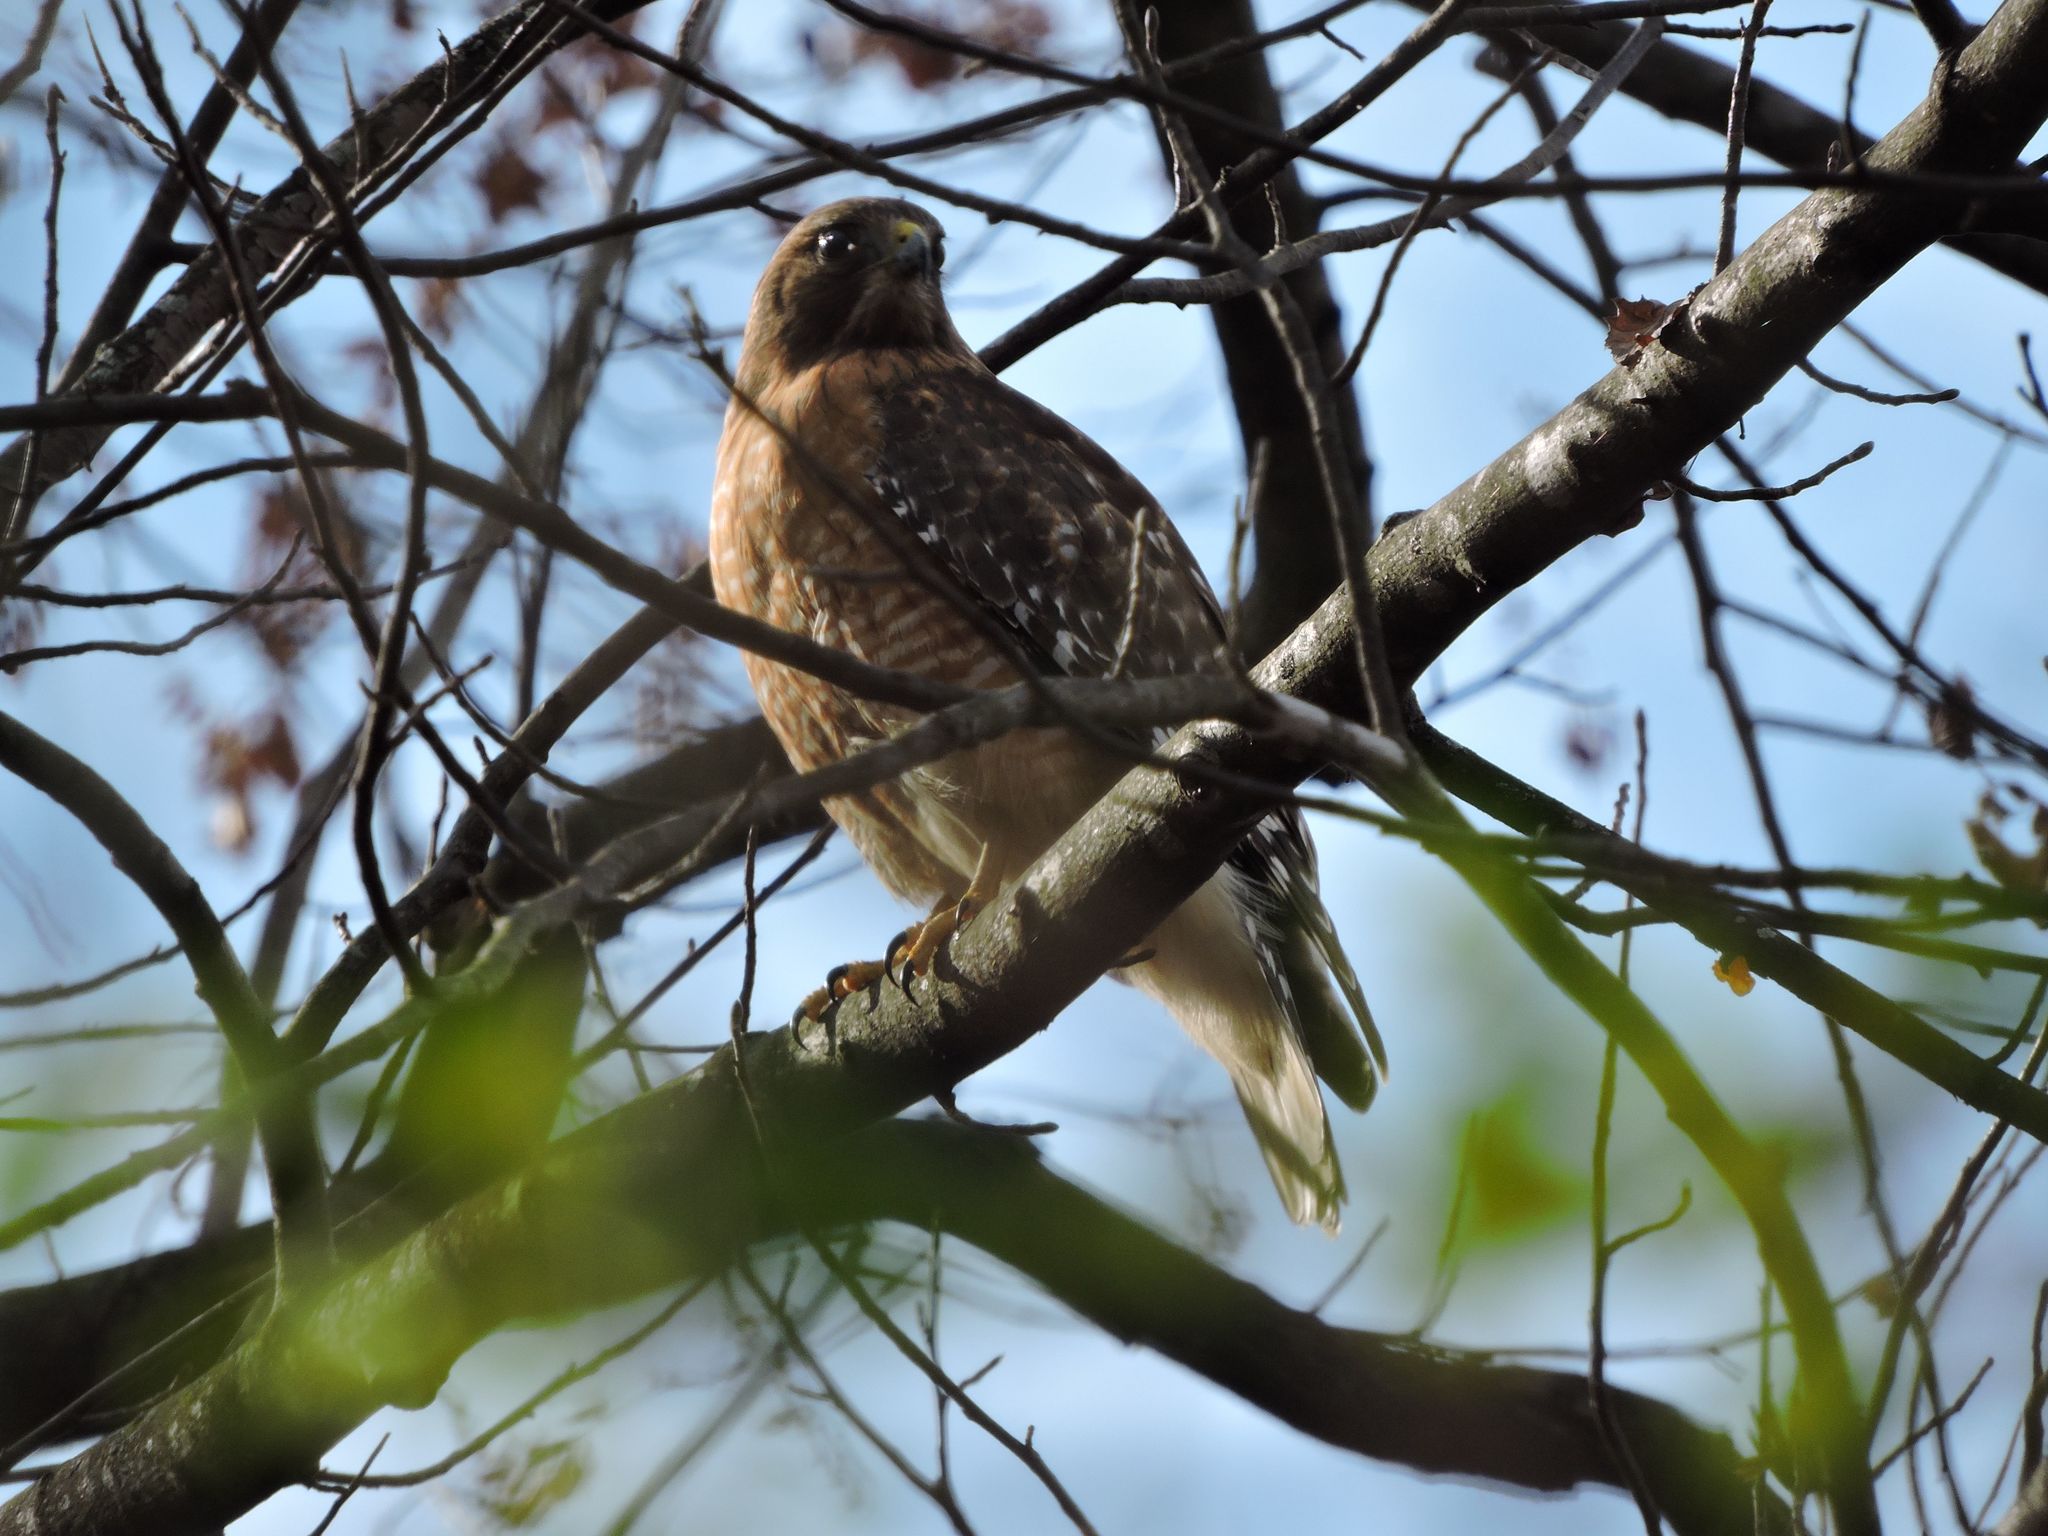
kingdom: Animalia
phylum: Chordata
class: Aves
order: Accipitriformes
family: Accipitridae
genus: Buteo
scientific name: Buteo lineatus
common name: Red-shouldered hawk
